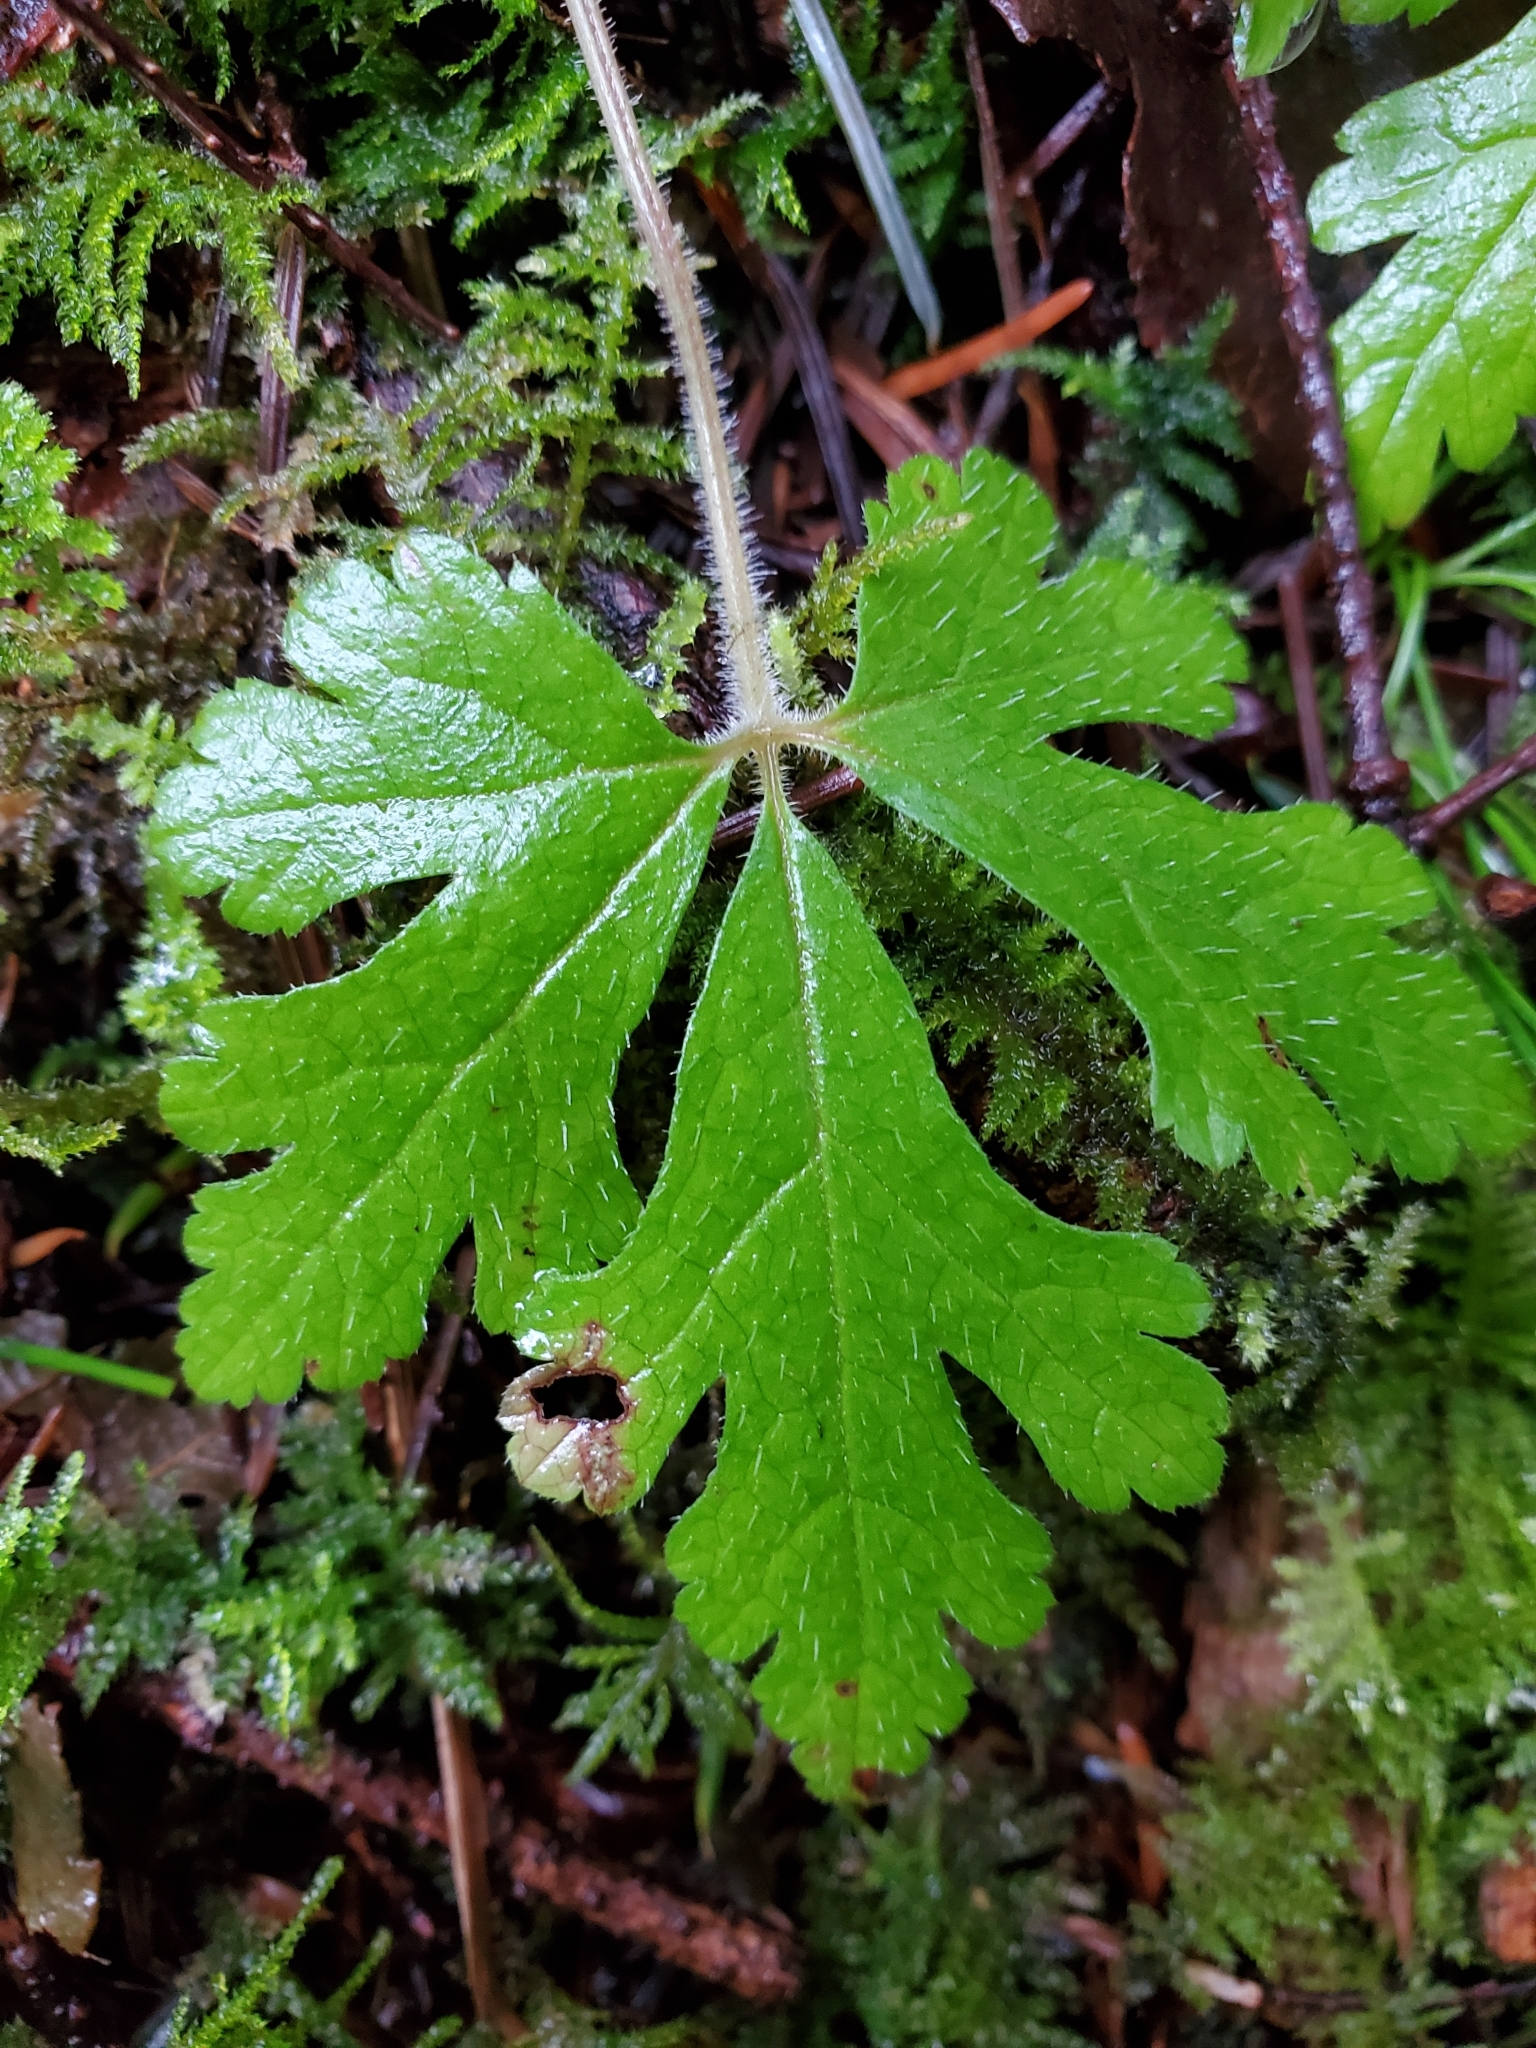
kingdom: Plantae
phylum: Tracheophyta
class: Magnoliopsida
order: Saxifragales
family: Saxifragaceae
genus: Tiarella
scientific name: Tiarella trifoliata
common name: Sugar-scoop
